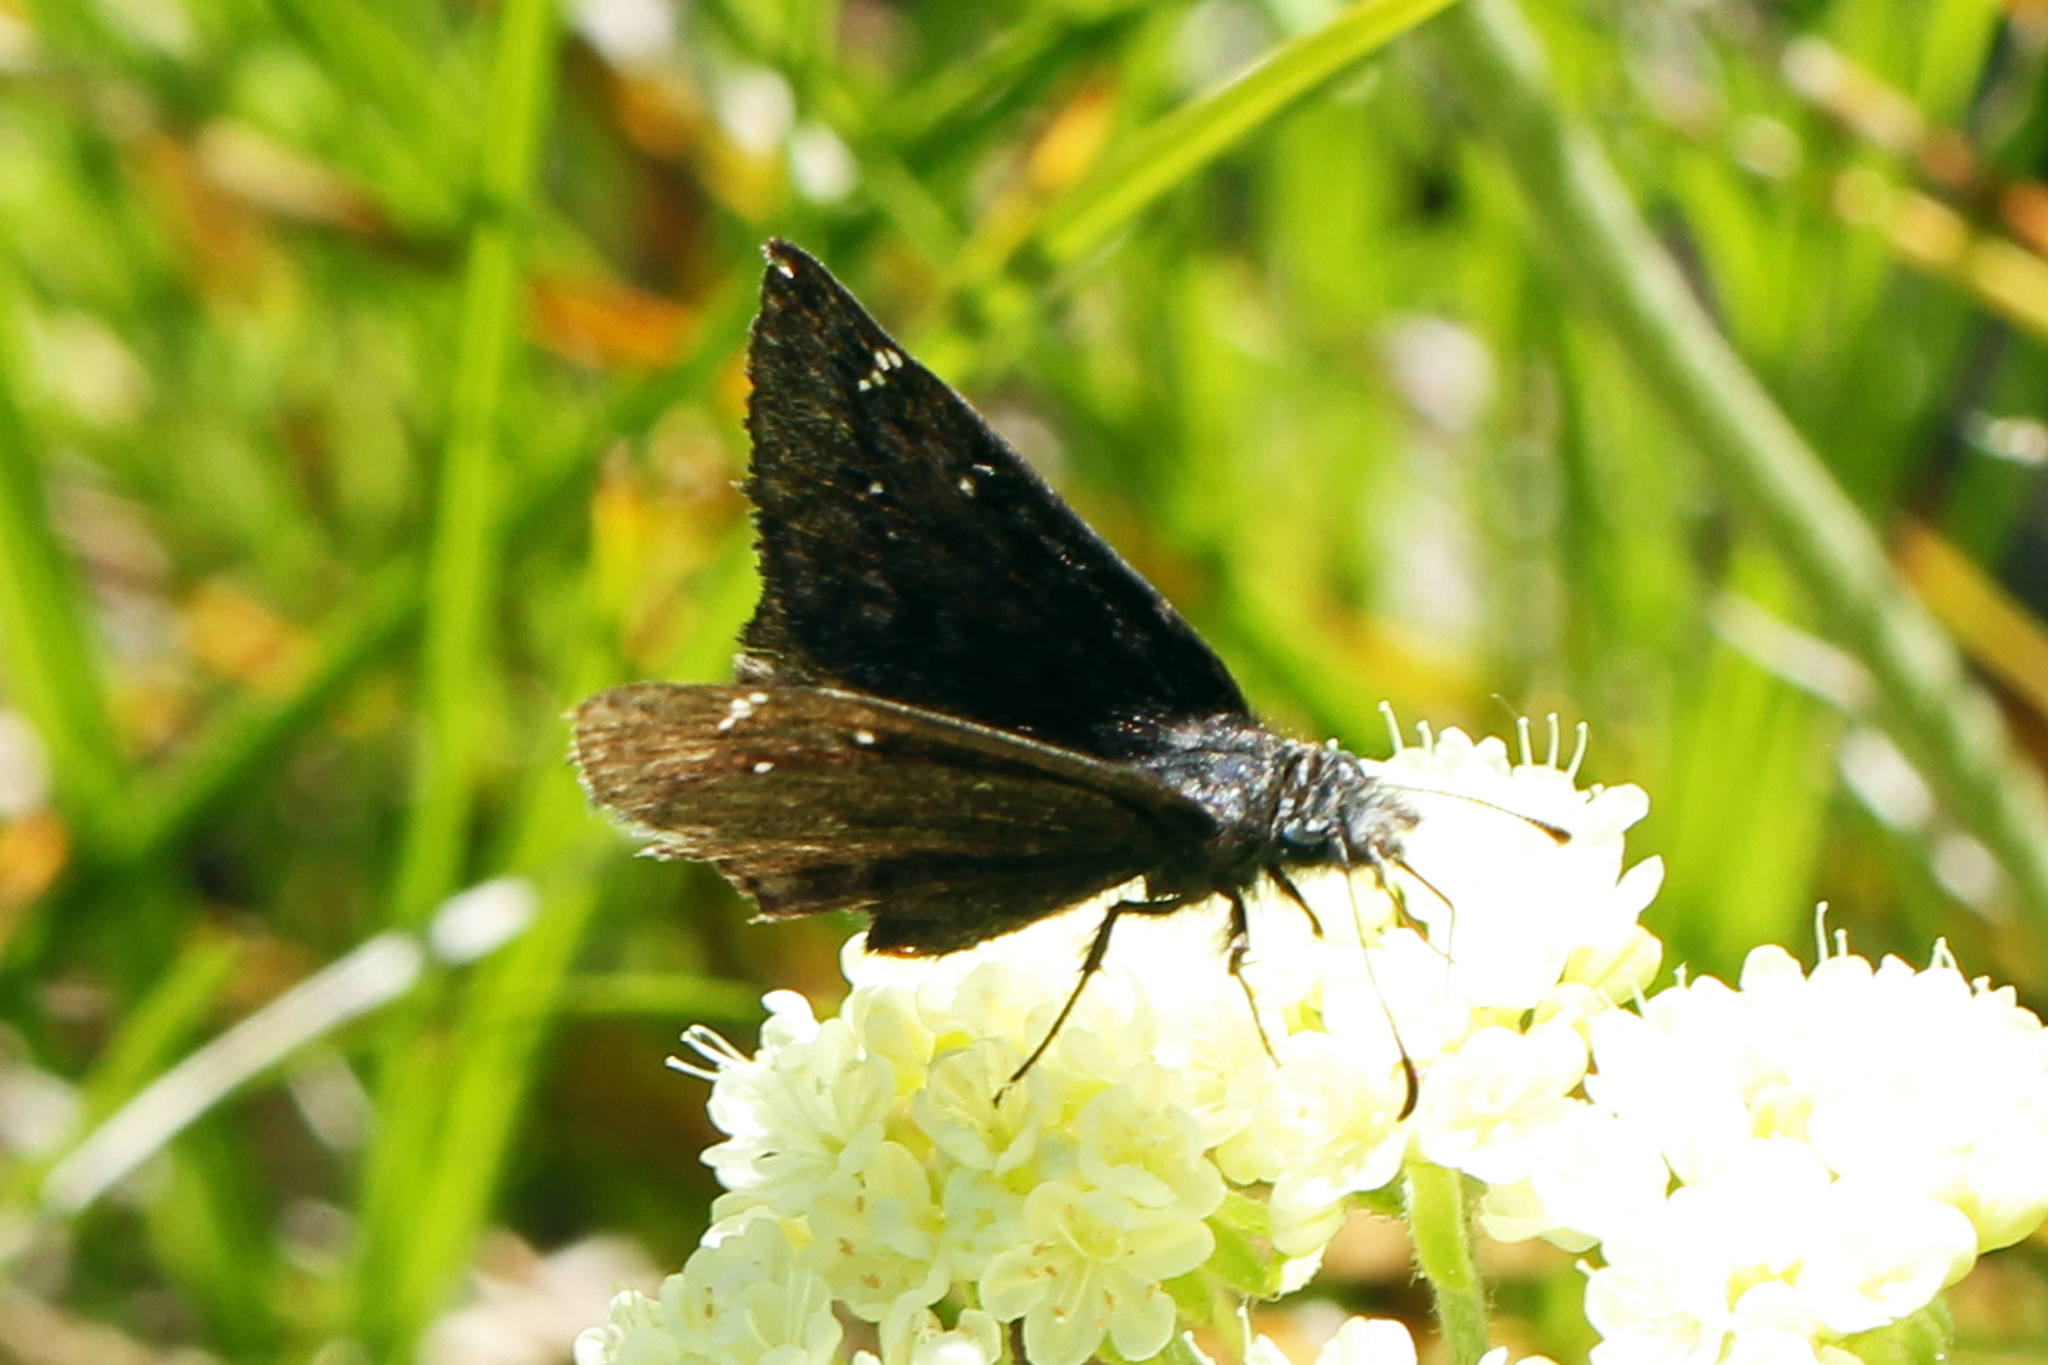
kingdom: Animalia
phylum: Arthropoda
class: Insecta
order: Lepidoptera
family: Hesperiidae
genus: Erynnis
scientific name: Erynnis persius
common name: Persius duskywing
